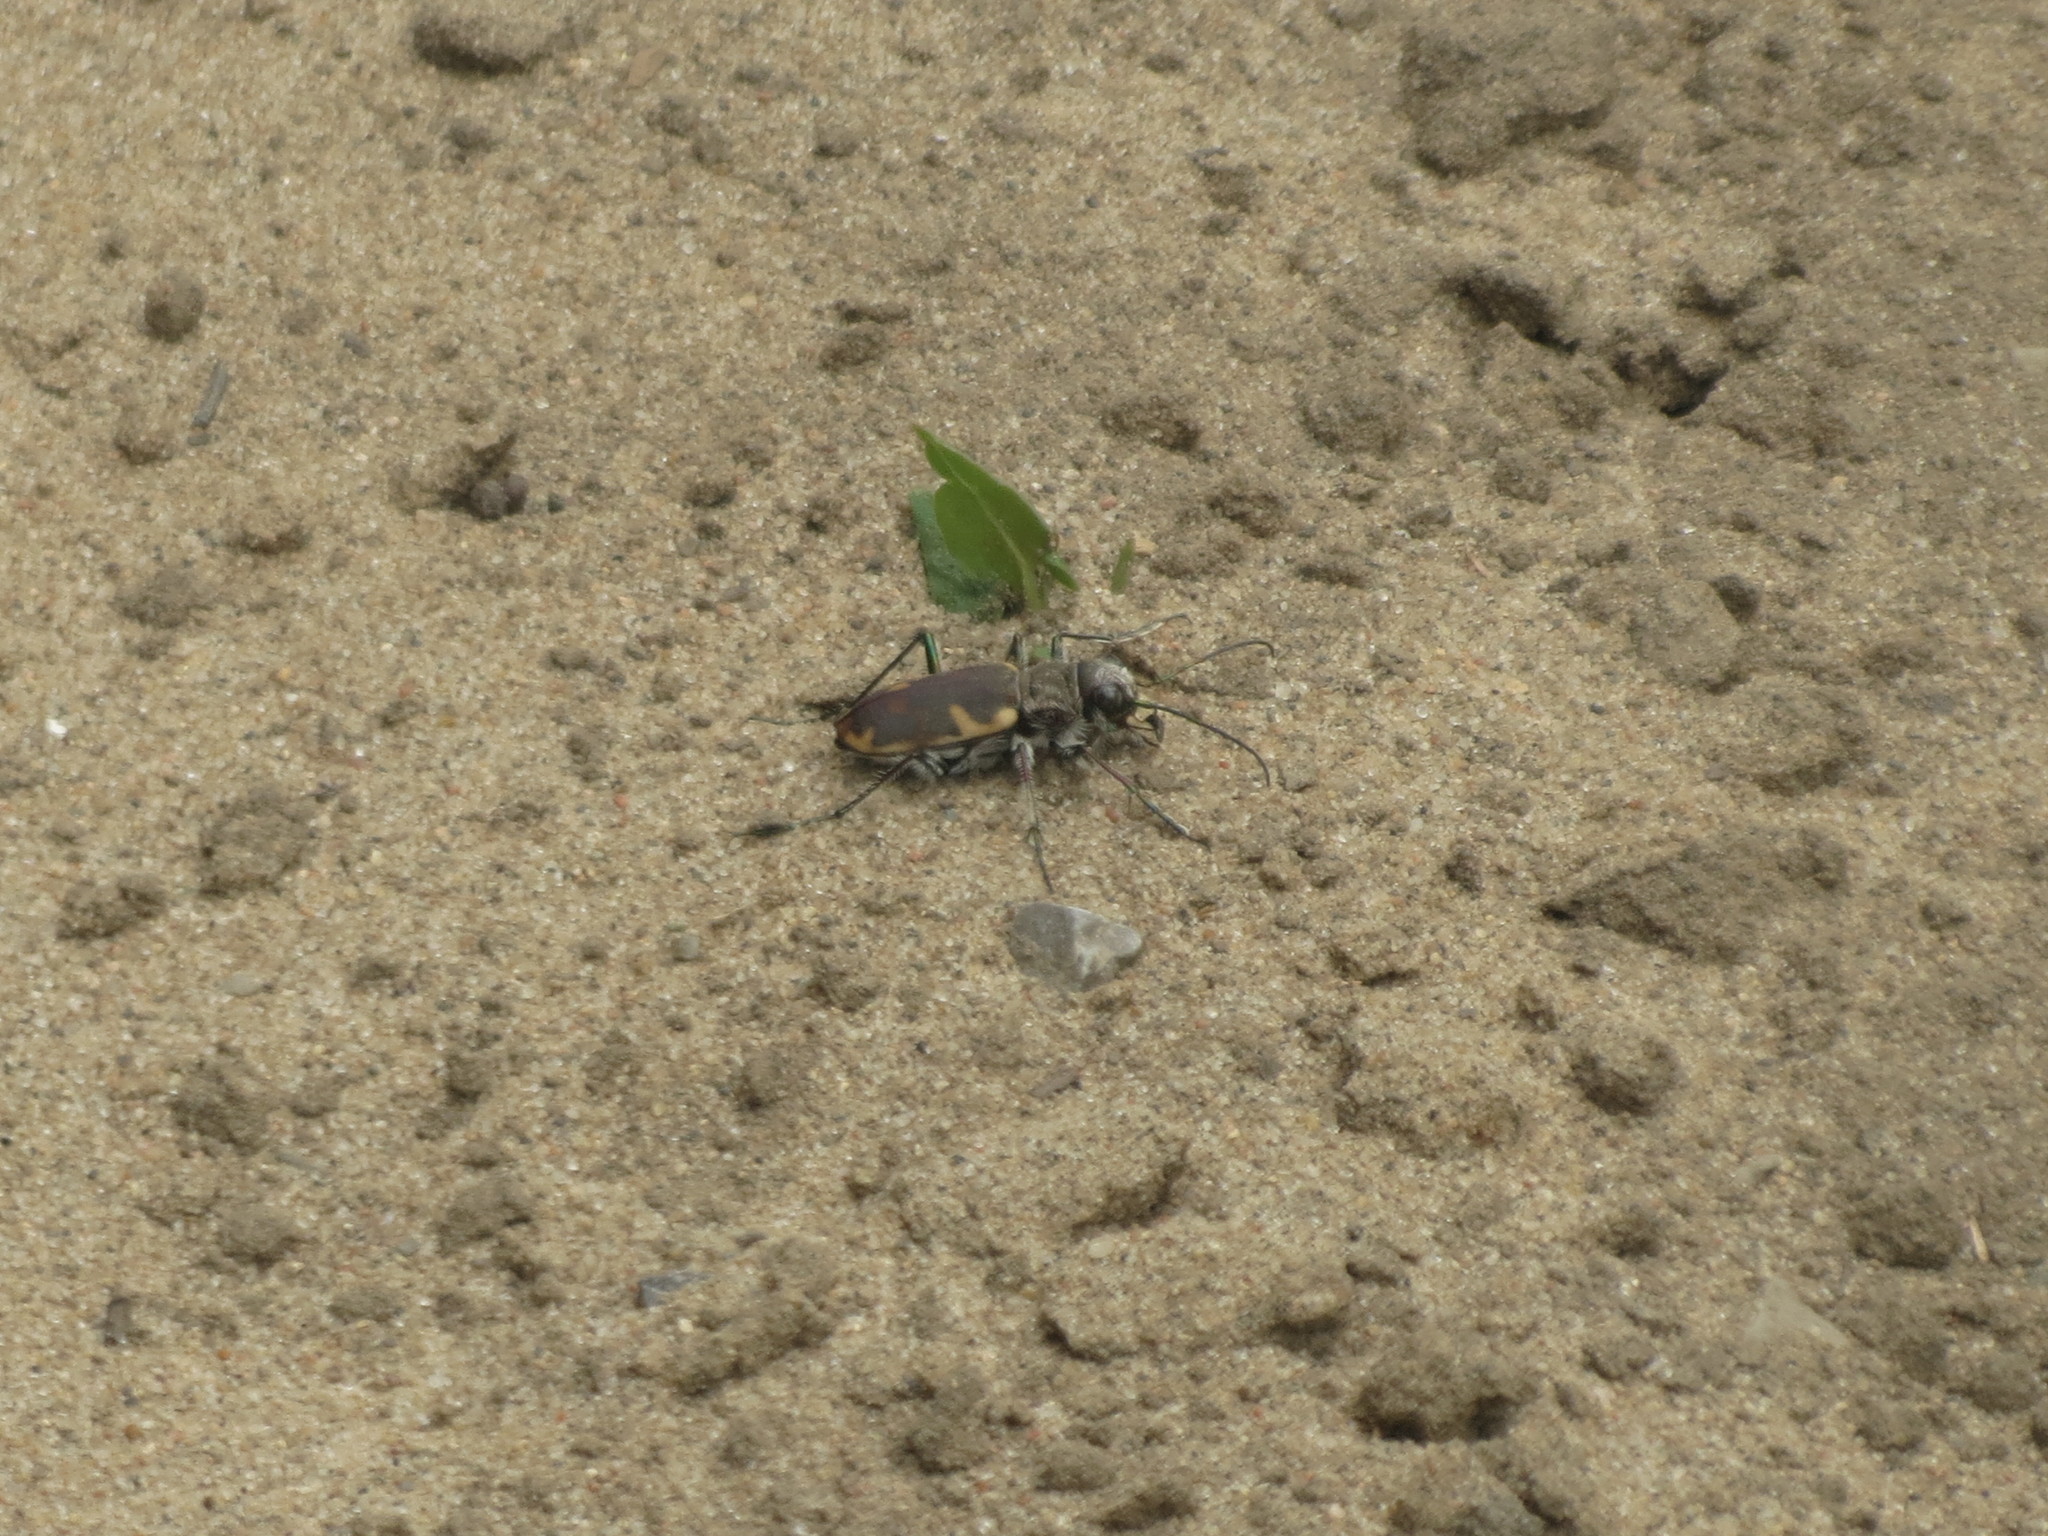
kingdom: Animalia
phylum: Arthropoda
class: Insecta
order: Coleoptera
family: Carabidae
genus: Cicindela
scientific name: Cicindela formosa
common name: Big sand tiger beetle
